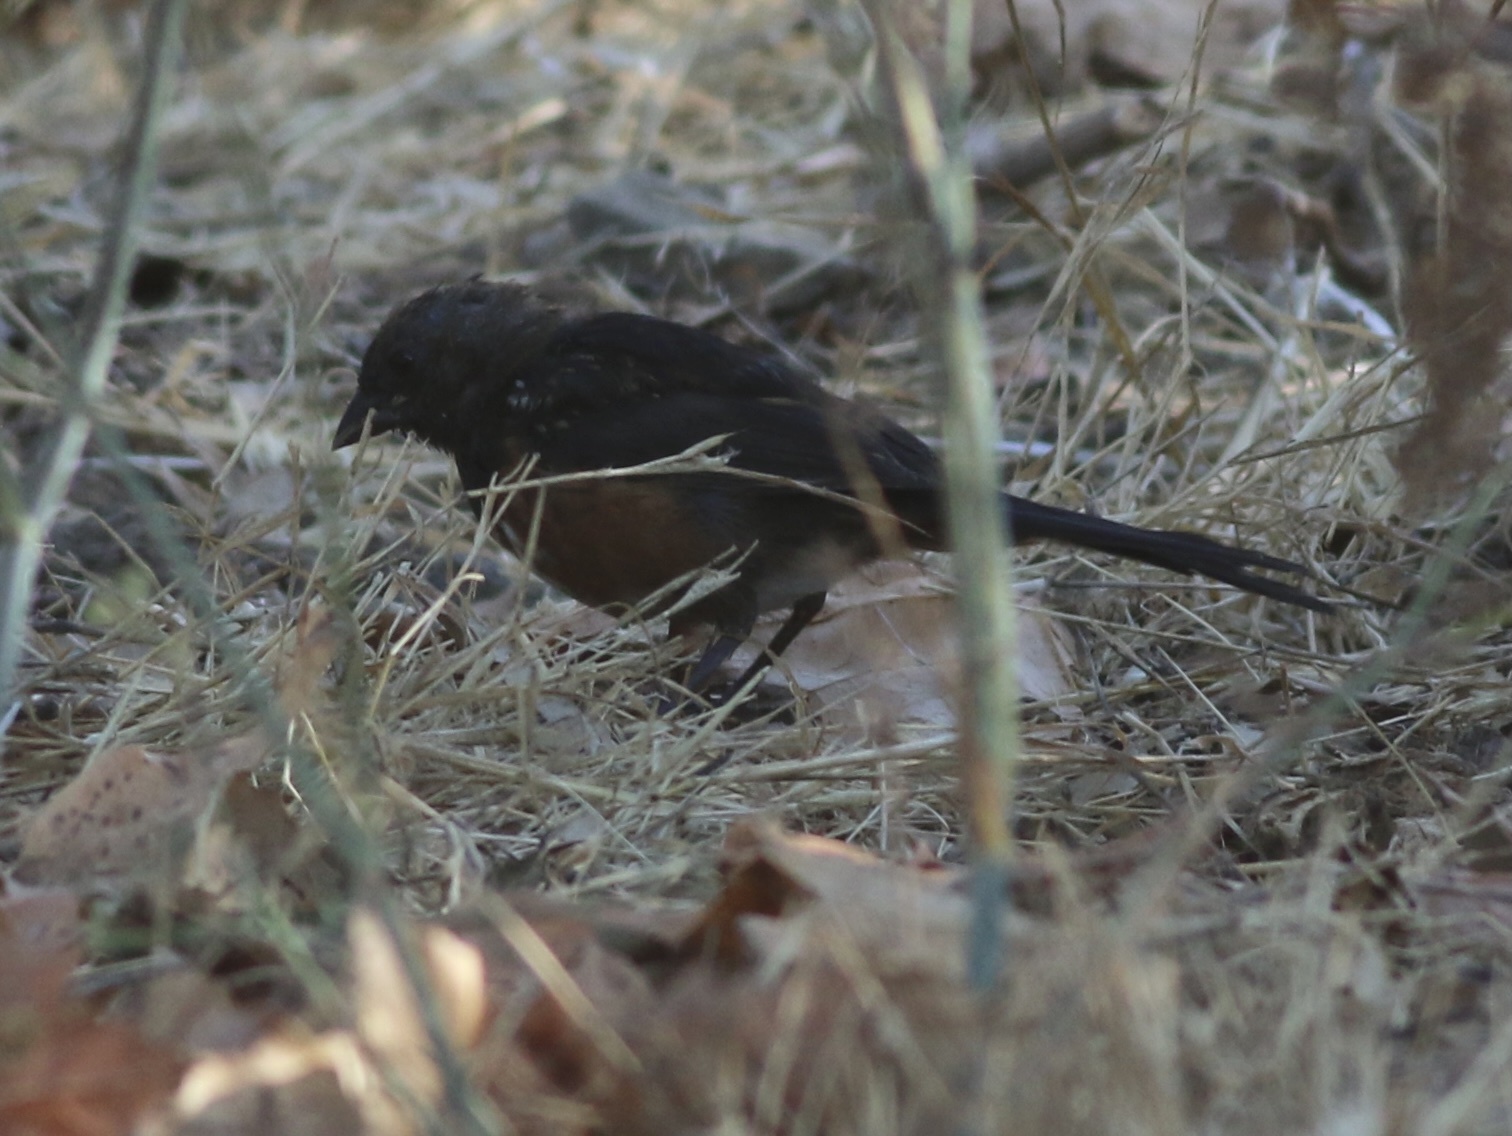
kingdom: Animalia
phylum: Chordata
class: Aves
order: Passeriformes
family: Passerellidae
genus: Pipilo
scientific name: Pipilo maculatus
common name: Spotted towhee
